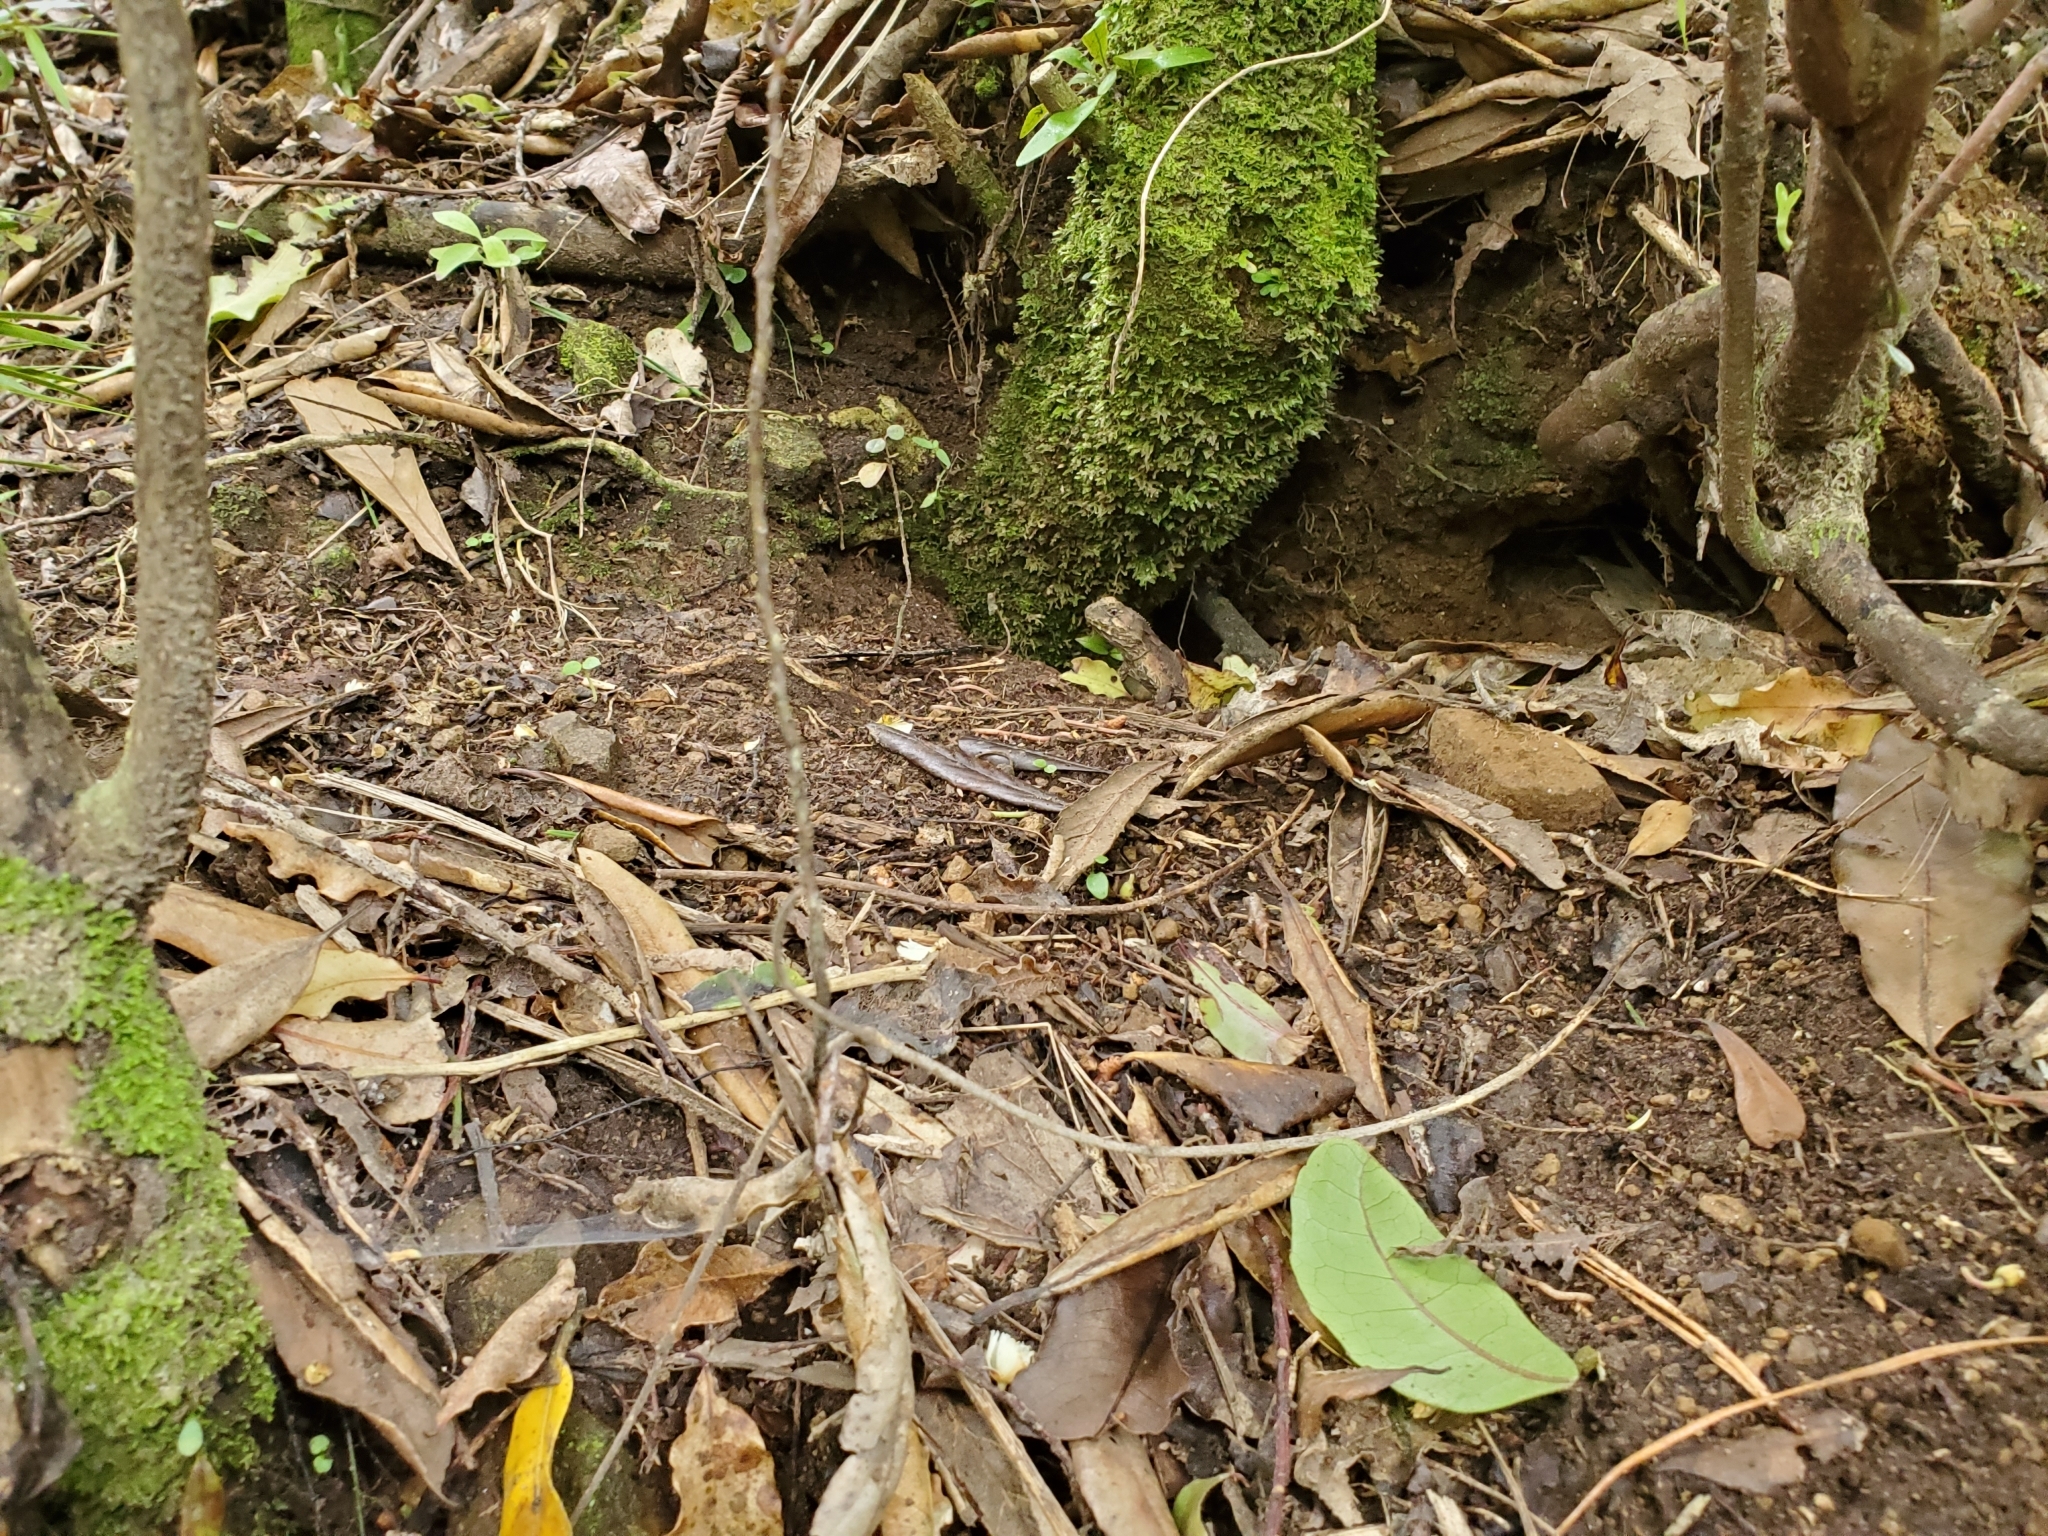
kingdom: Animalia
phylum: Chordata
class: Sphenodontia
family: Sphenodontidae
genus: Sphenodon
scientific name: Sphenodon punctatus
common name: Tuatara
